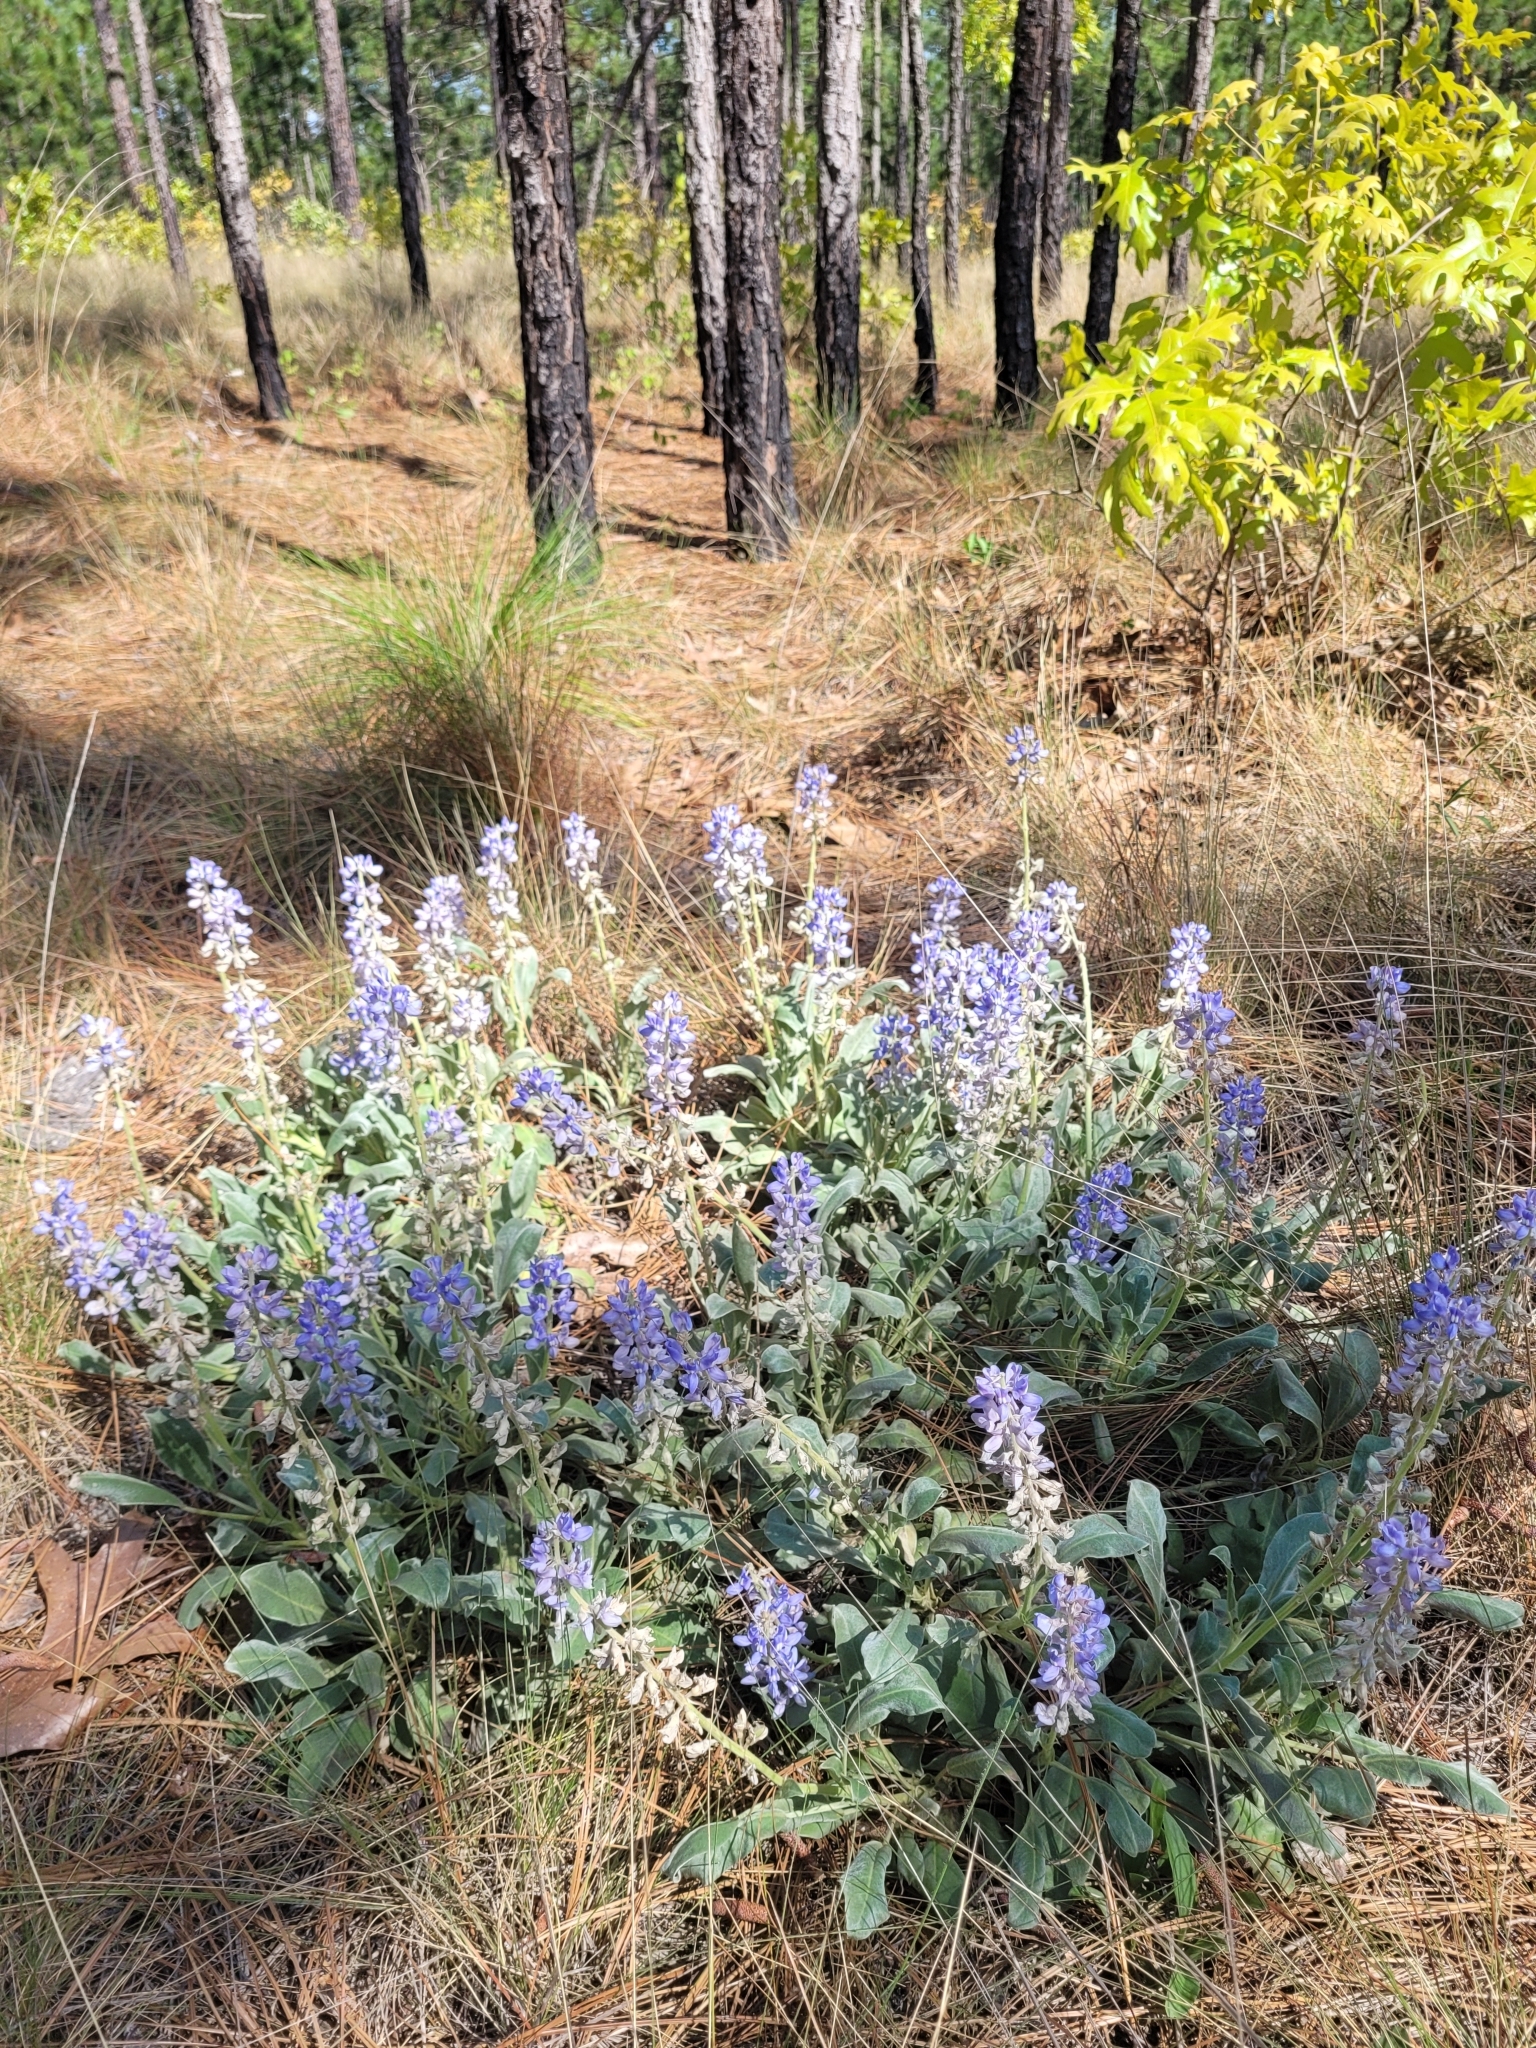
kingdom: Plantae
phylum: Tracheophyta
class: Magnoliopsida
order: Fabales
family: Fabaceae
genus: Lupinus
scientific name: Lupinus diffusus
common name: Oak ridge lupine
